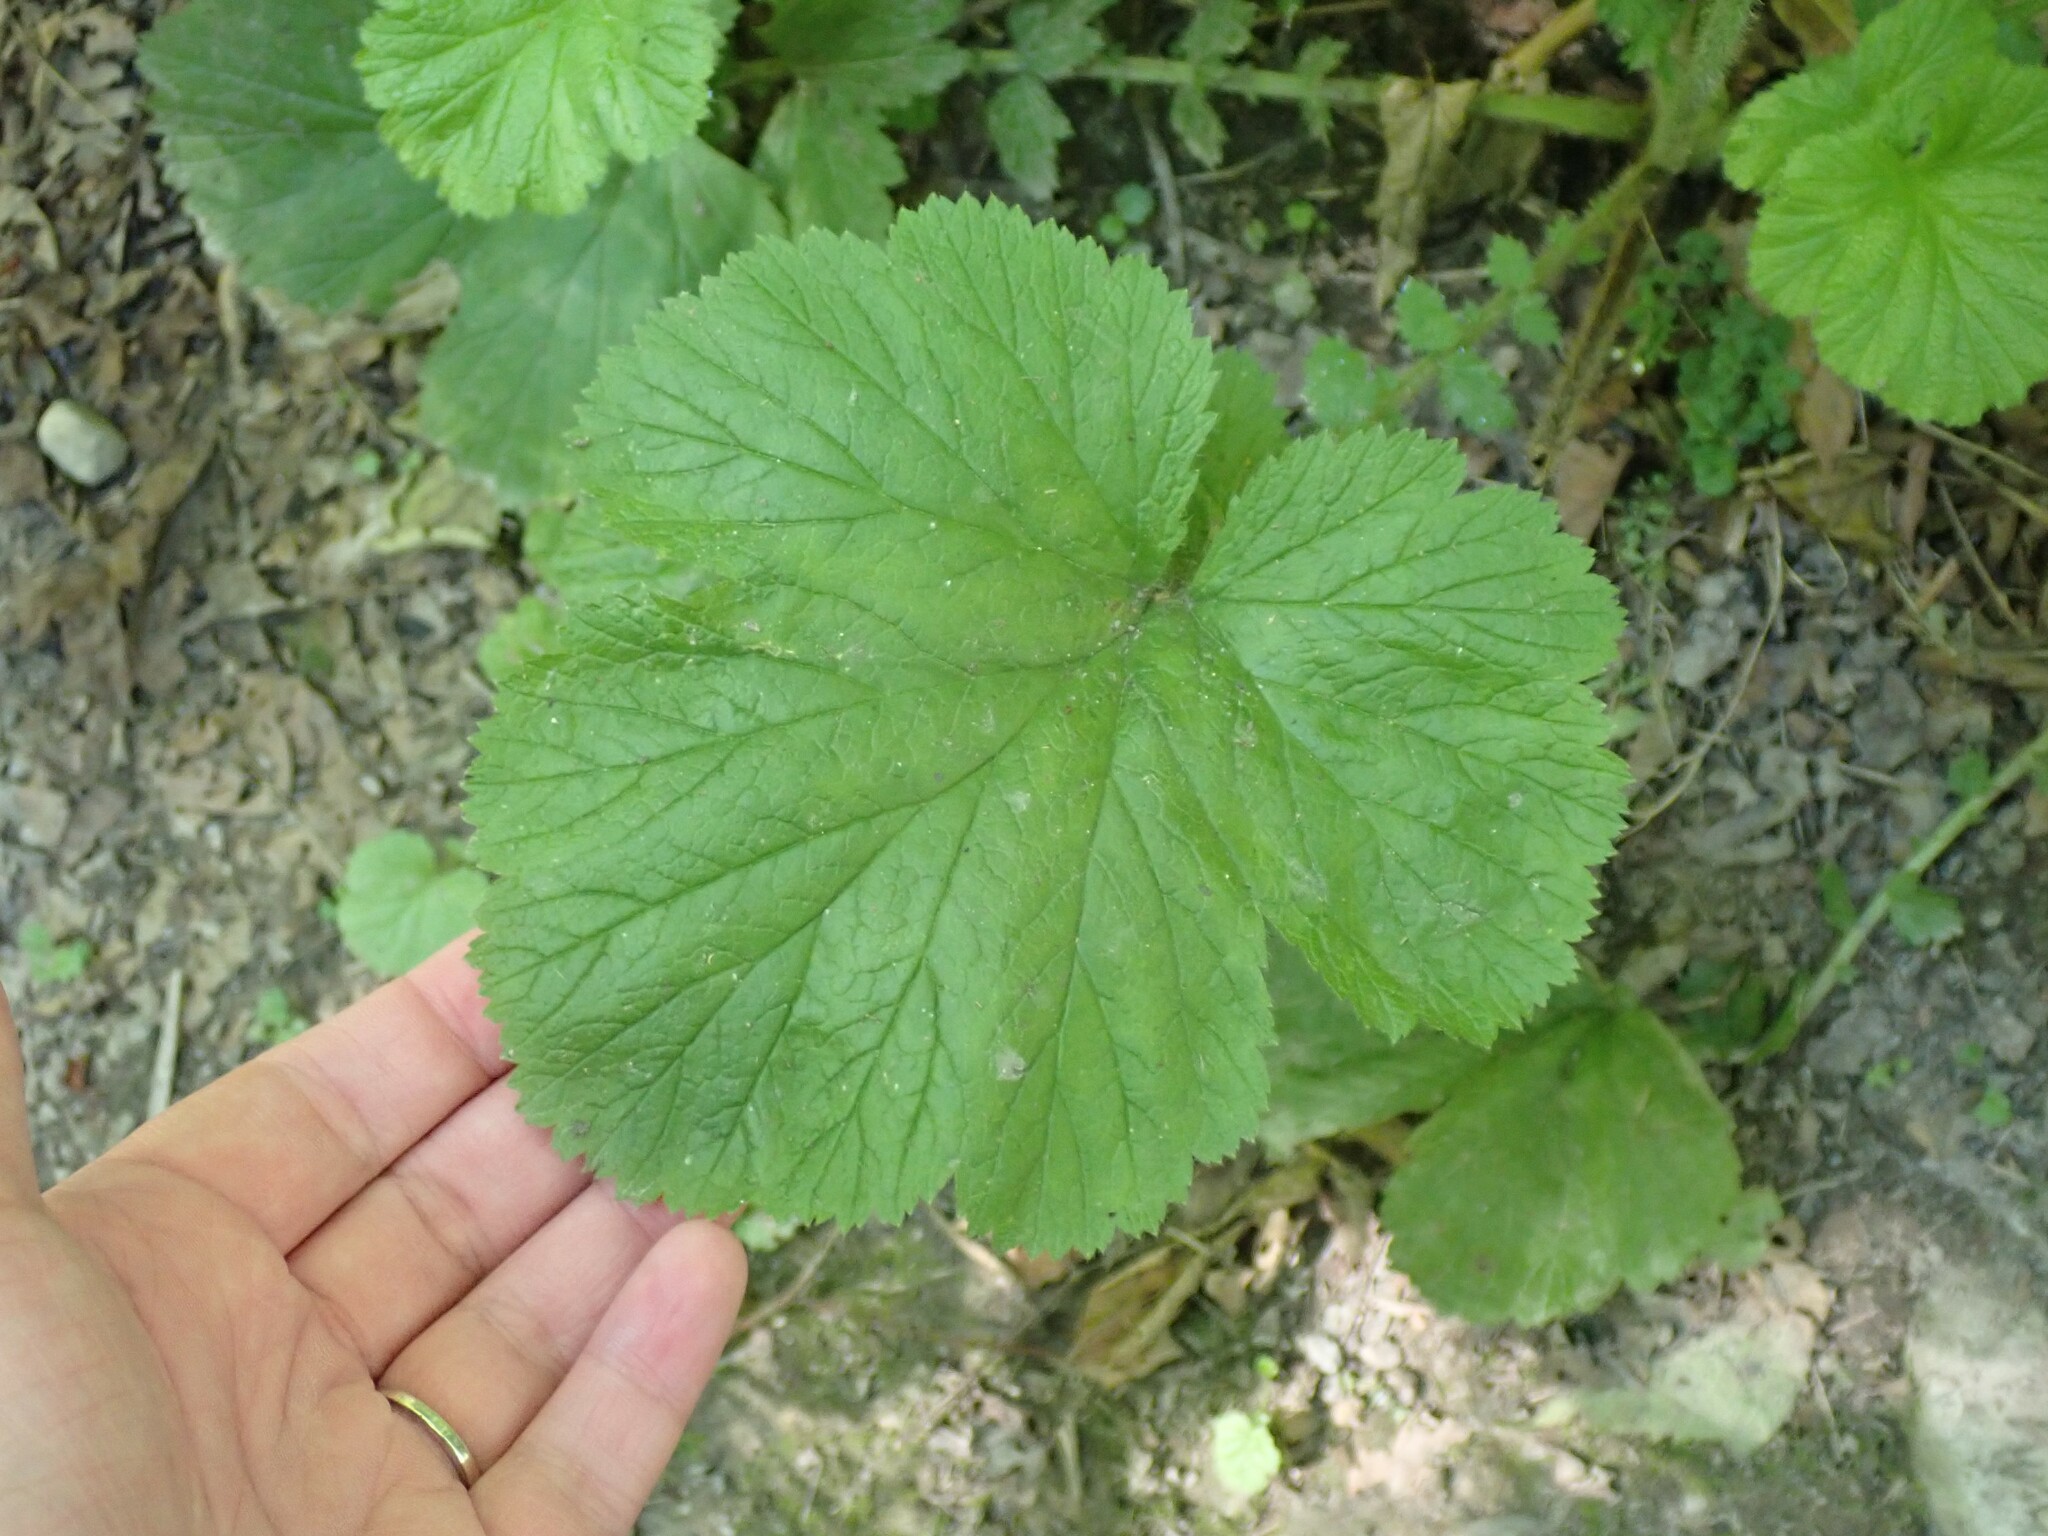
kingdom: Plantae
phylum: Tracheophyta
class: Magnoliopsida
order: Rosales
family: Rosaceae
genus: Geum
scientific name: Geum macrophyllum
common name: Large-leaved avens
